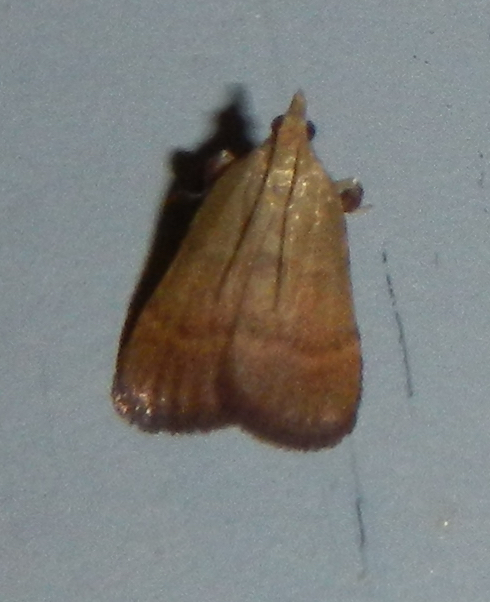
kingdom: Animalia
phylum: Arthropoda
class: Insecta
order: Lepidoptera
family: Pyralidae
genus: Condylolomia
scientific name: Condylolomia participialis
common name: Drab condylolomia moth
